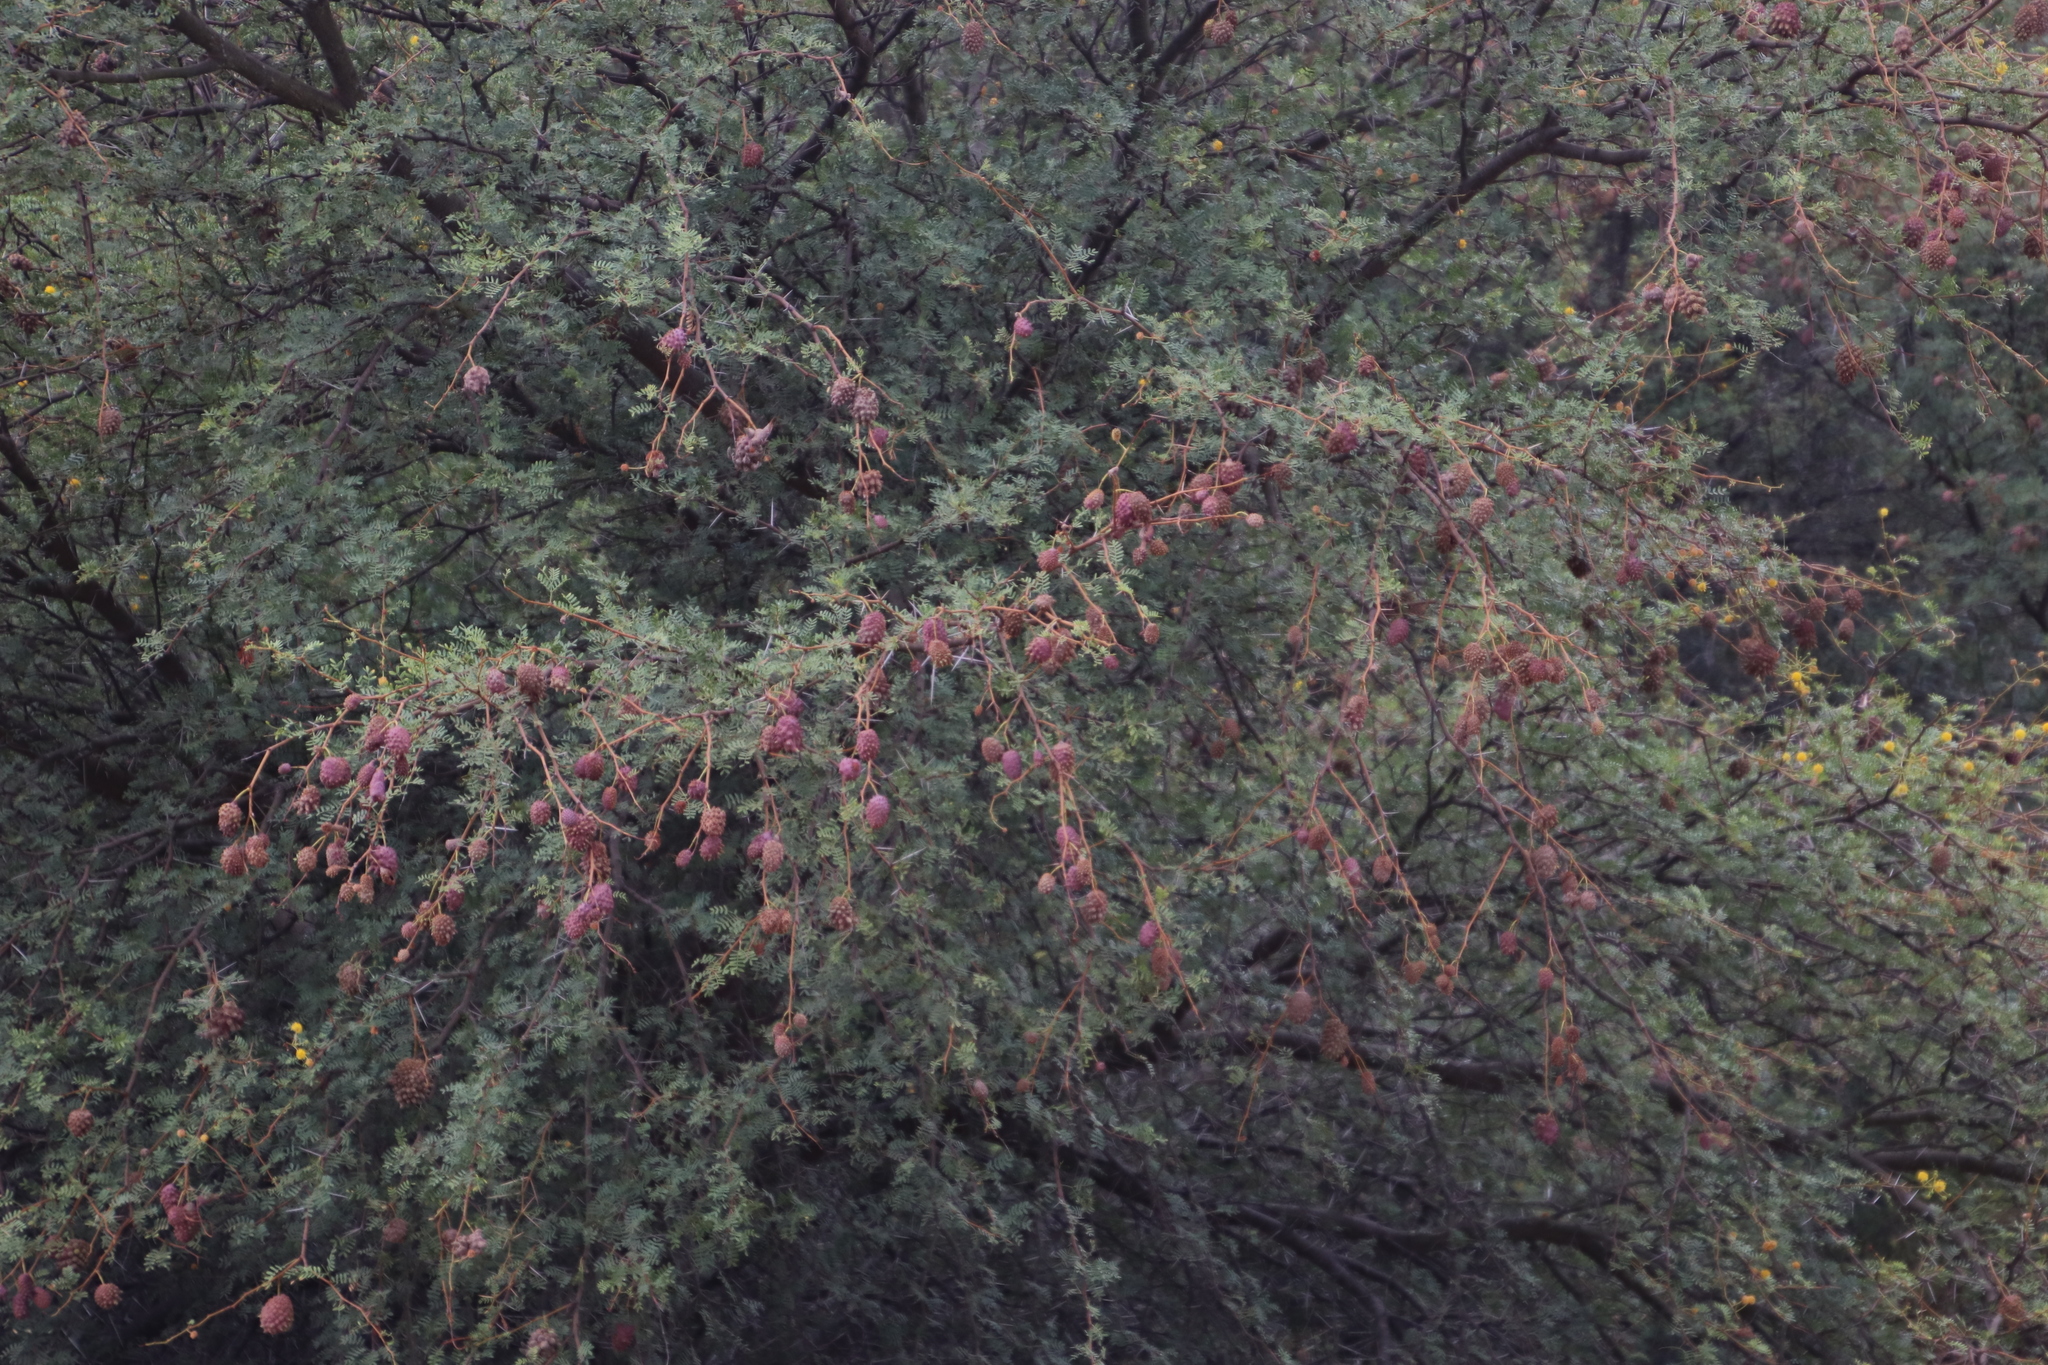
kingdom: Plantae
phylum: Tracheophyta
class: Magnoliopsida
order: Fabales
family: Fabaceae
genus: Vachellia
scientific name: Vachellia karroo
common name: Sweet thorn
